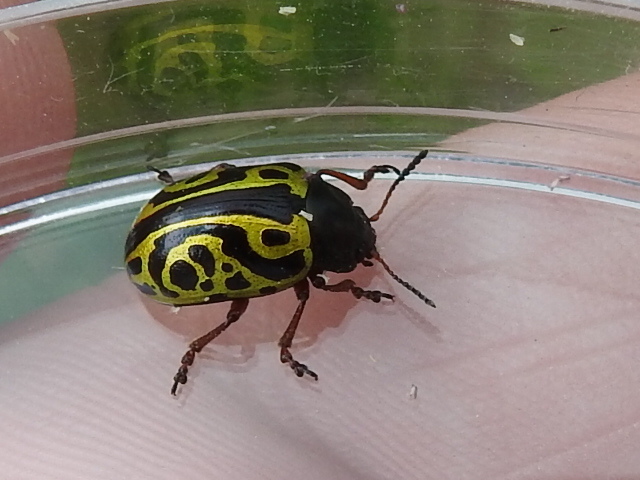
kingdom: Animalia
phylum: Arthropoda
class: Insecta
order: Coleoptera
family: Chrysomelidae
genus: Calligrapha
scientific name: Calligrapha serpentina
